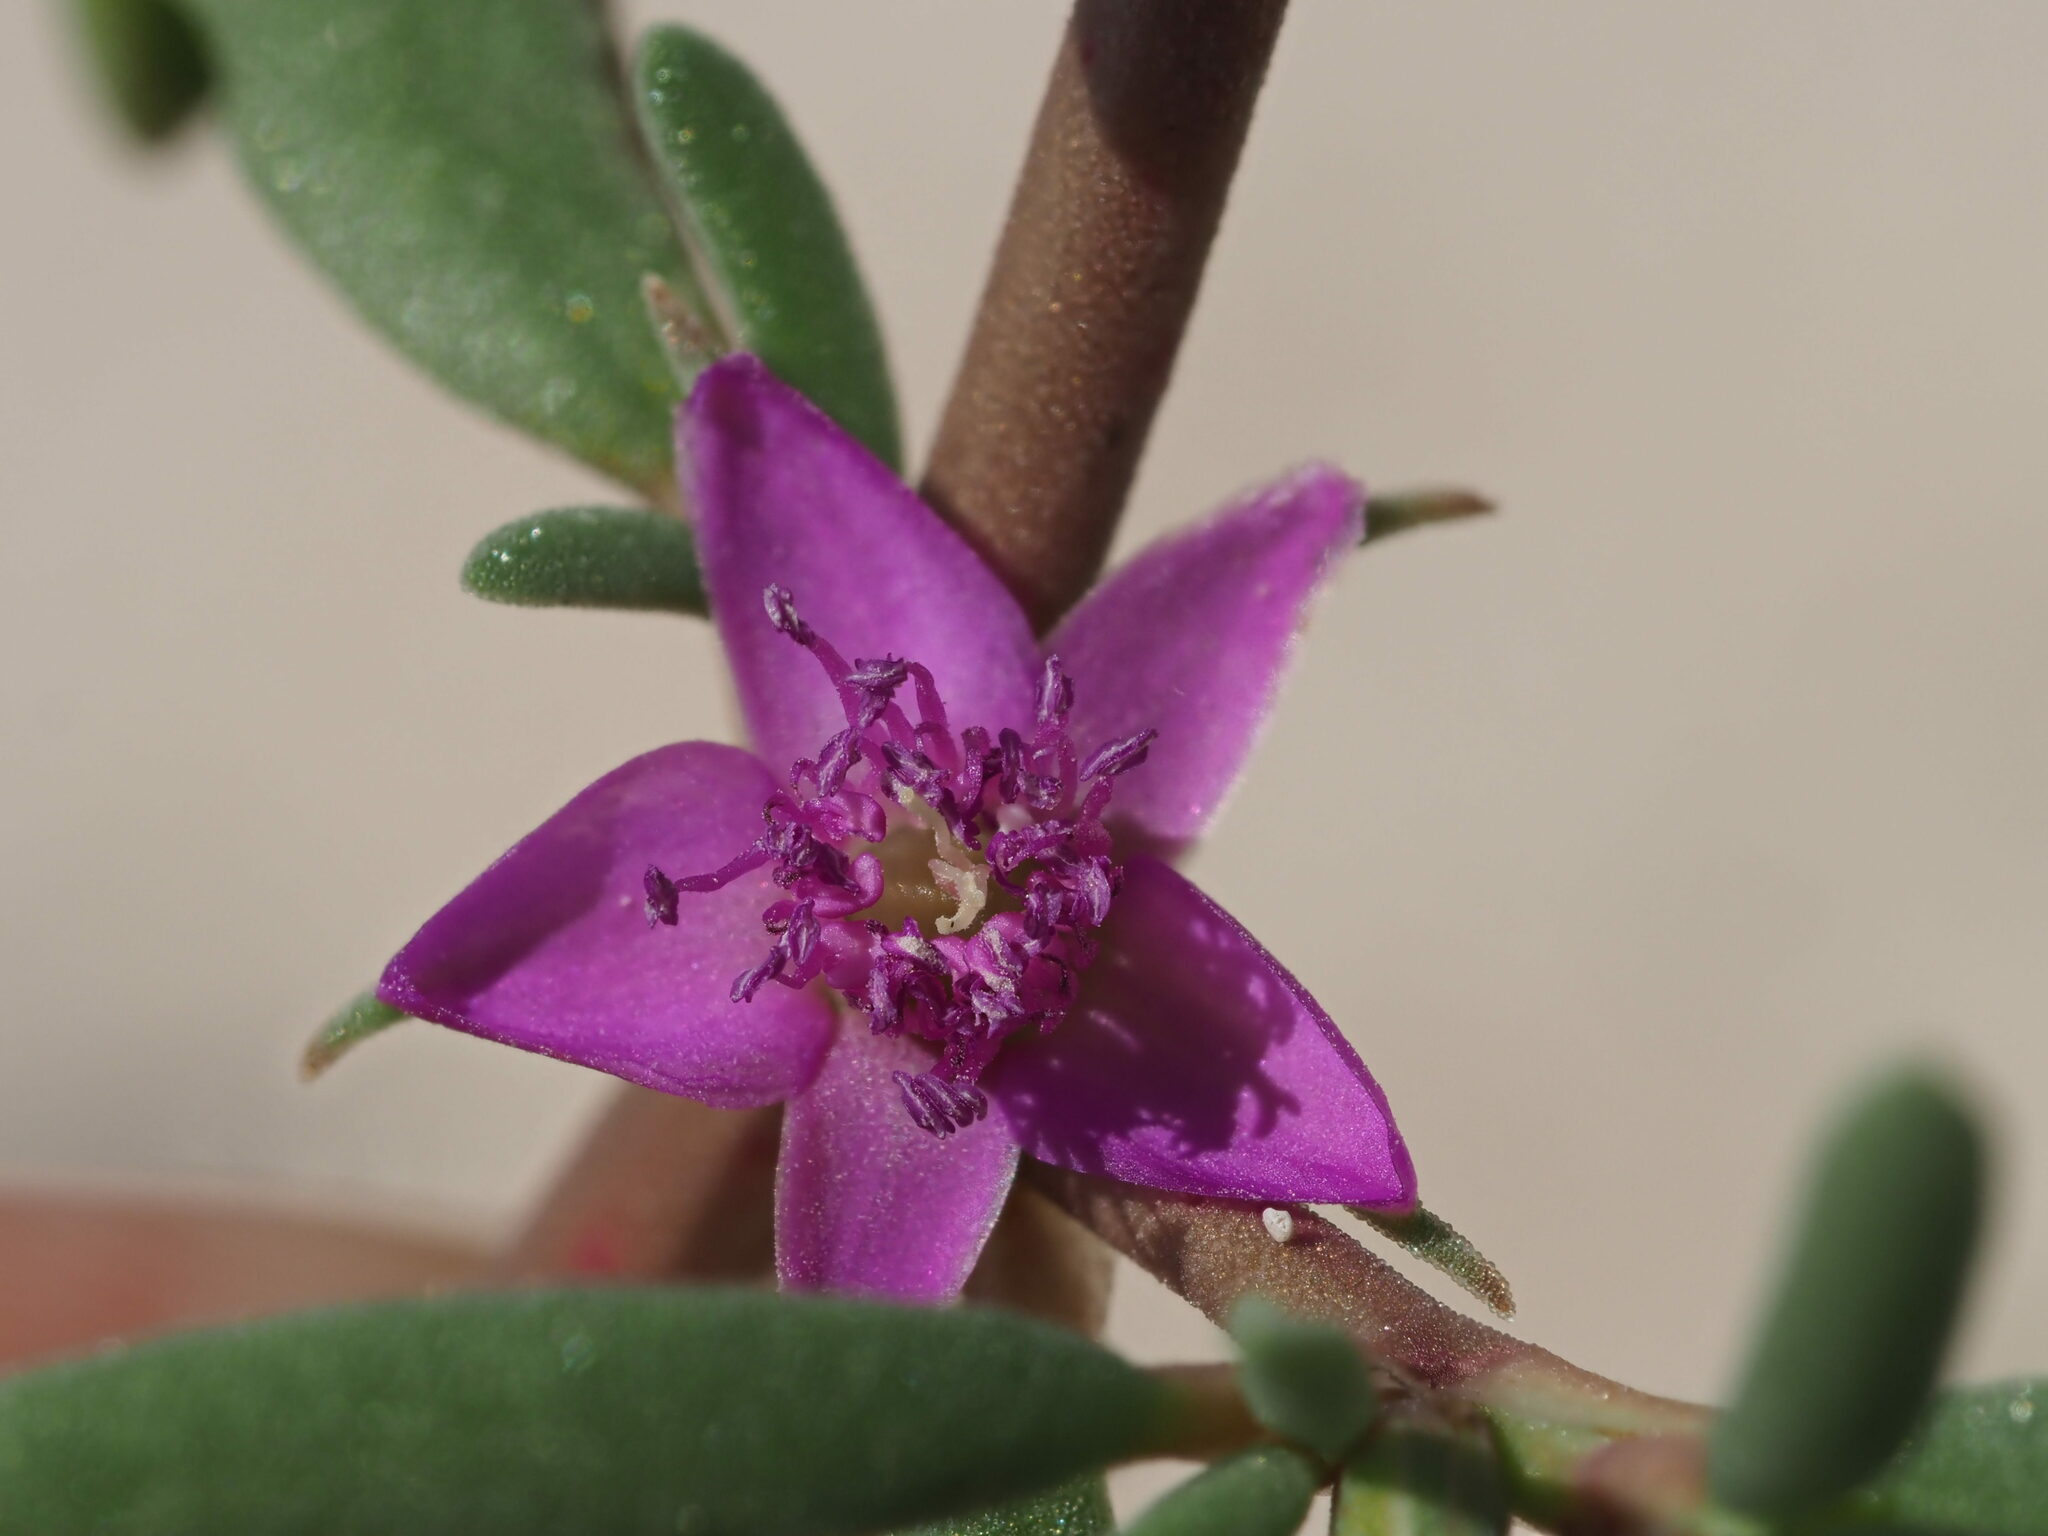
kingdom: Plantae
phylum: Tracheophyta
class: Magnoliopsida
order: Caryophyllales
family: Aizoaceae
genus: Sesuvium
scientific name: Sesuvium revolutifolium
